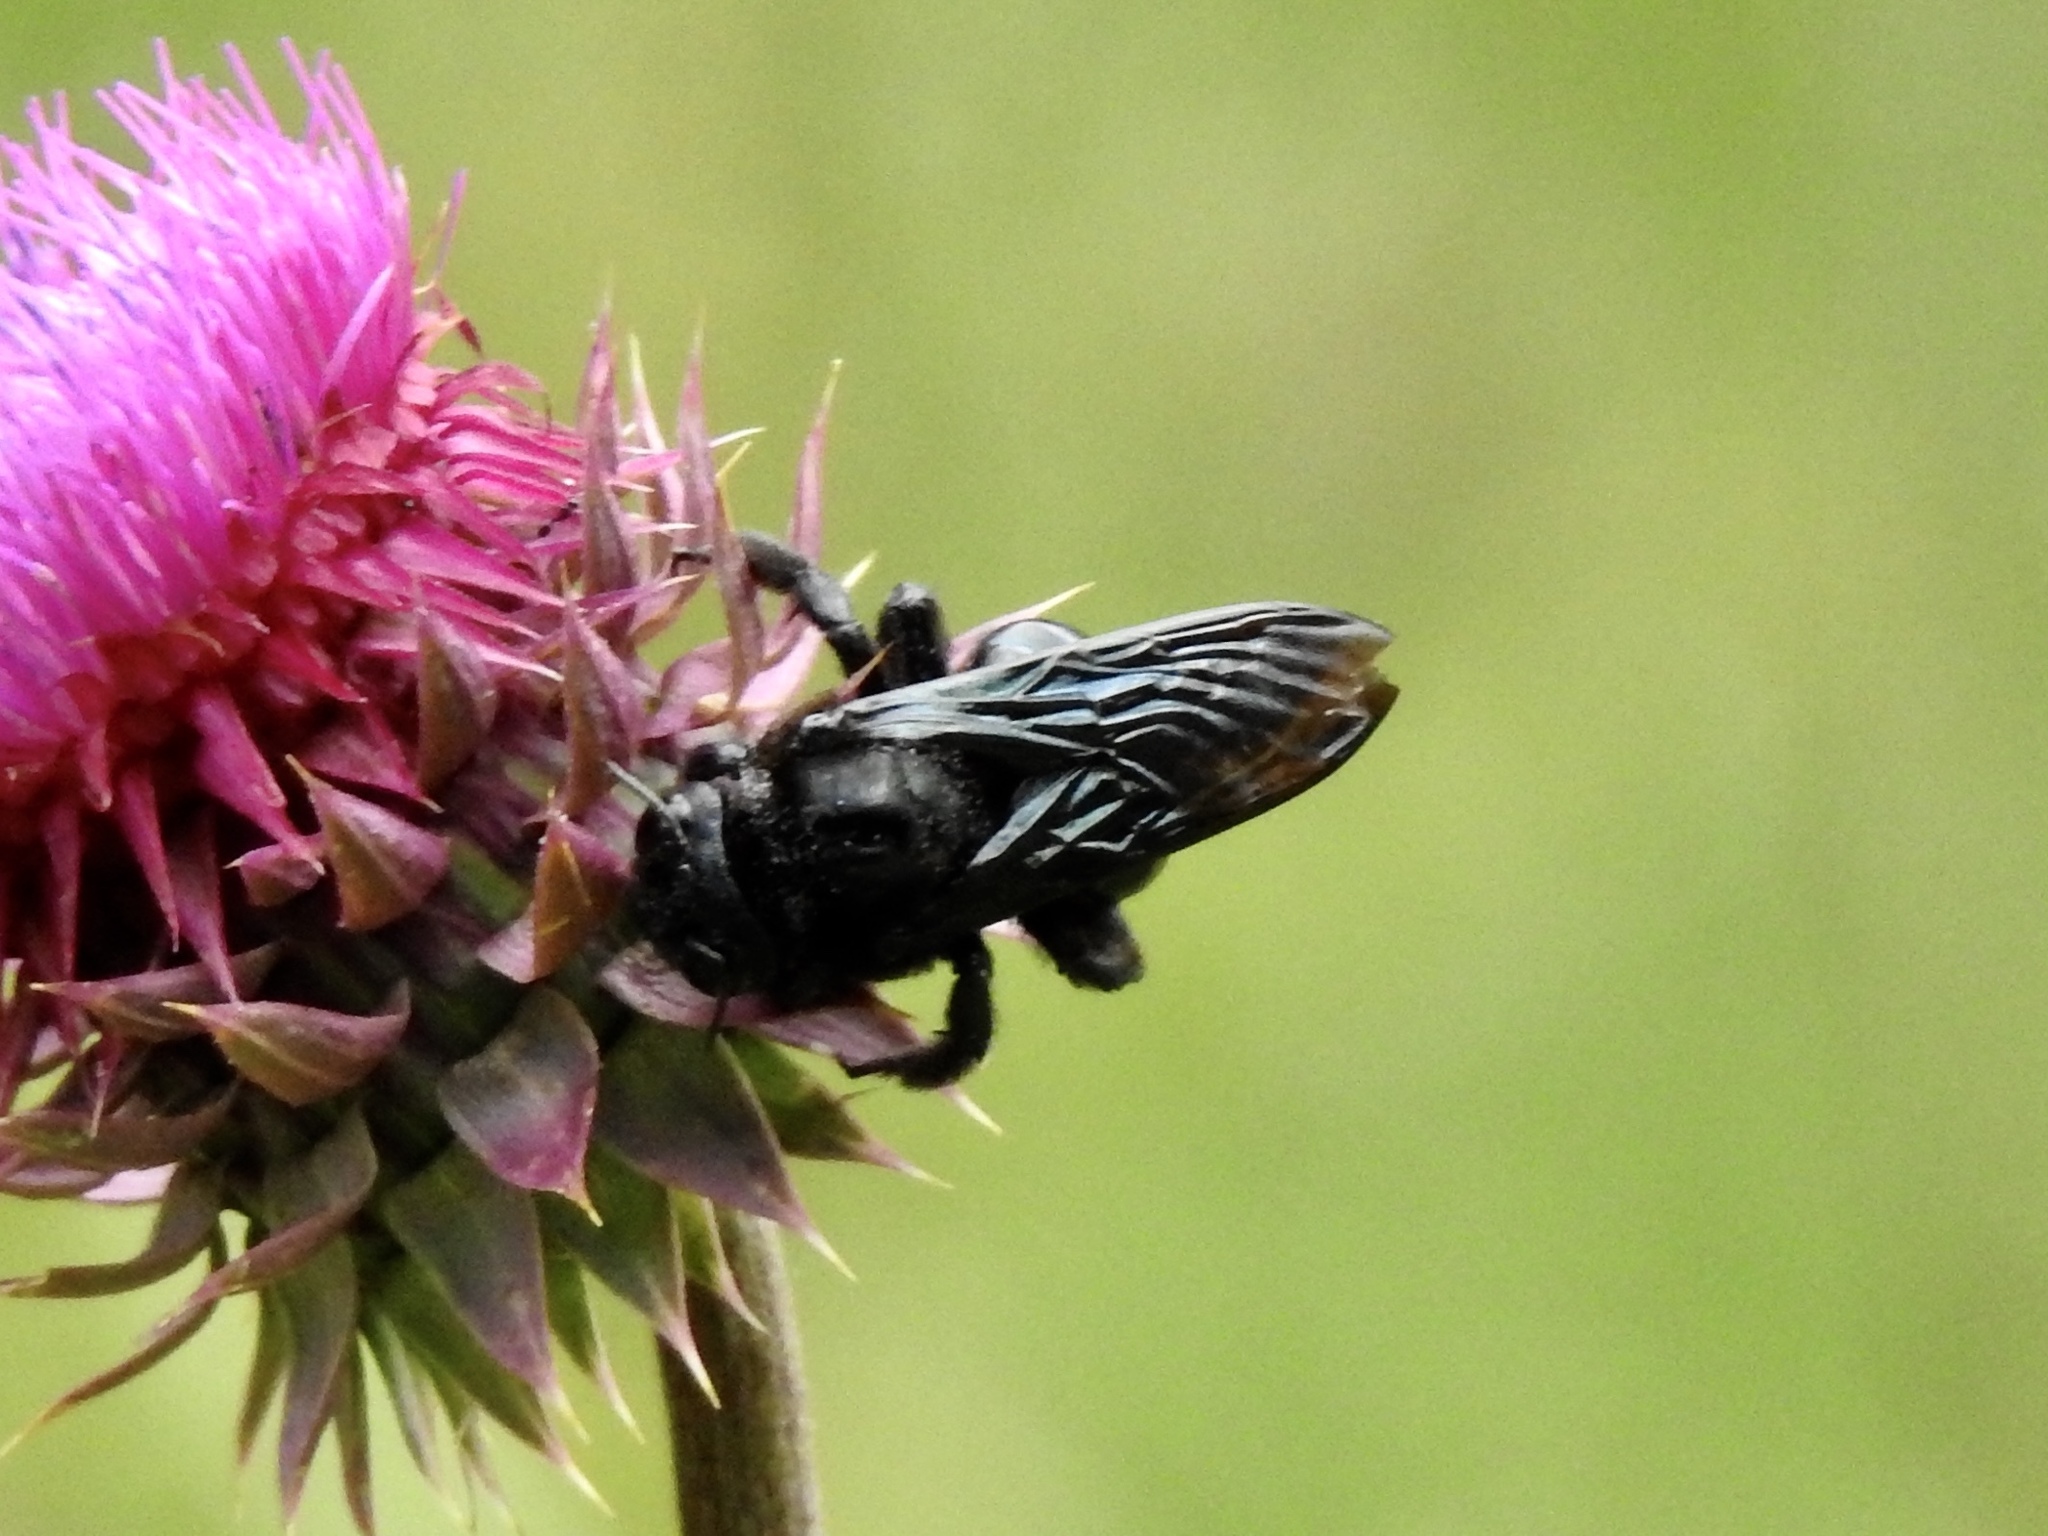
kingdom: Animalia
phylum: Arthropoda
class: Insecta
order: Hymenoptera
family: Apidae
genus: Xylocopa
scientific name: Xylocopa californica
